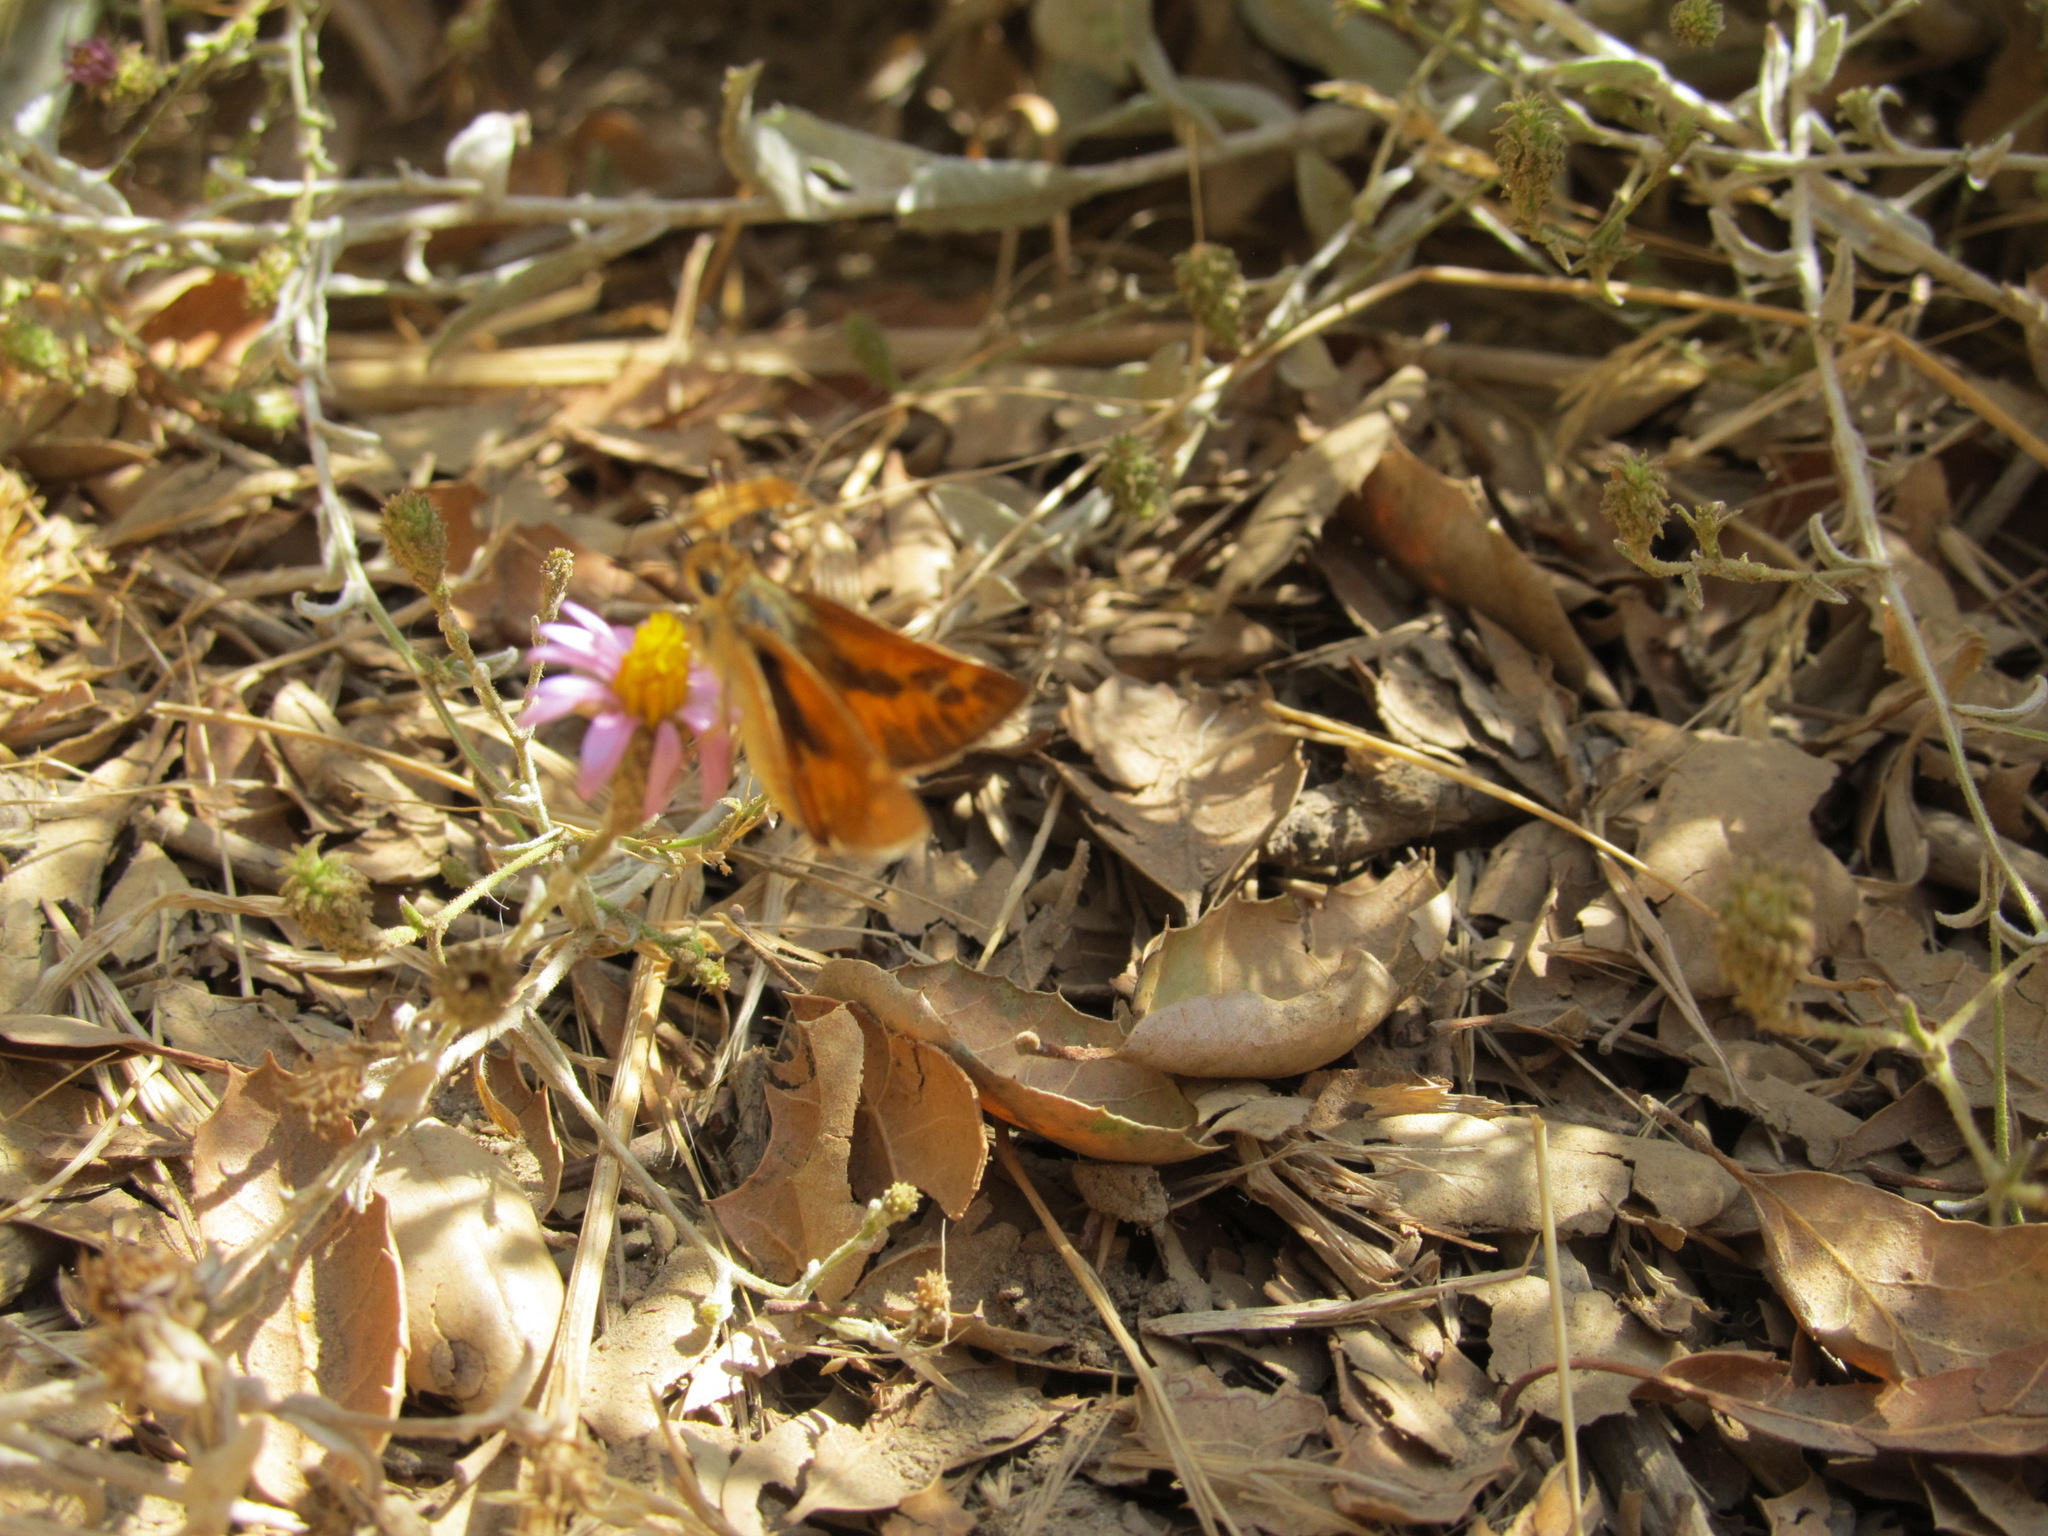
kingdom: Animalia
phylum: Arthropoda
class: Insecta
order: Lepidoptera
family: Hesperiidae
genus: Ochlodes
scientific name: Ochlodes sylvanoides
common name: Woodland skipper
